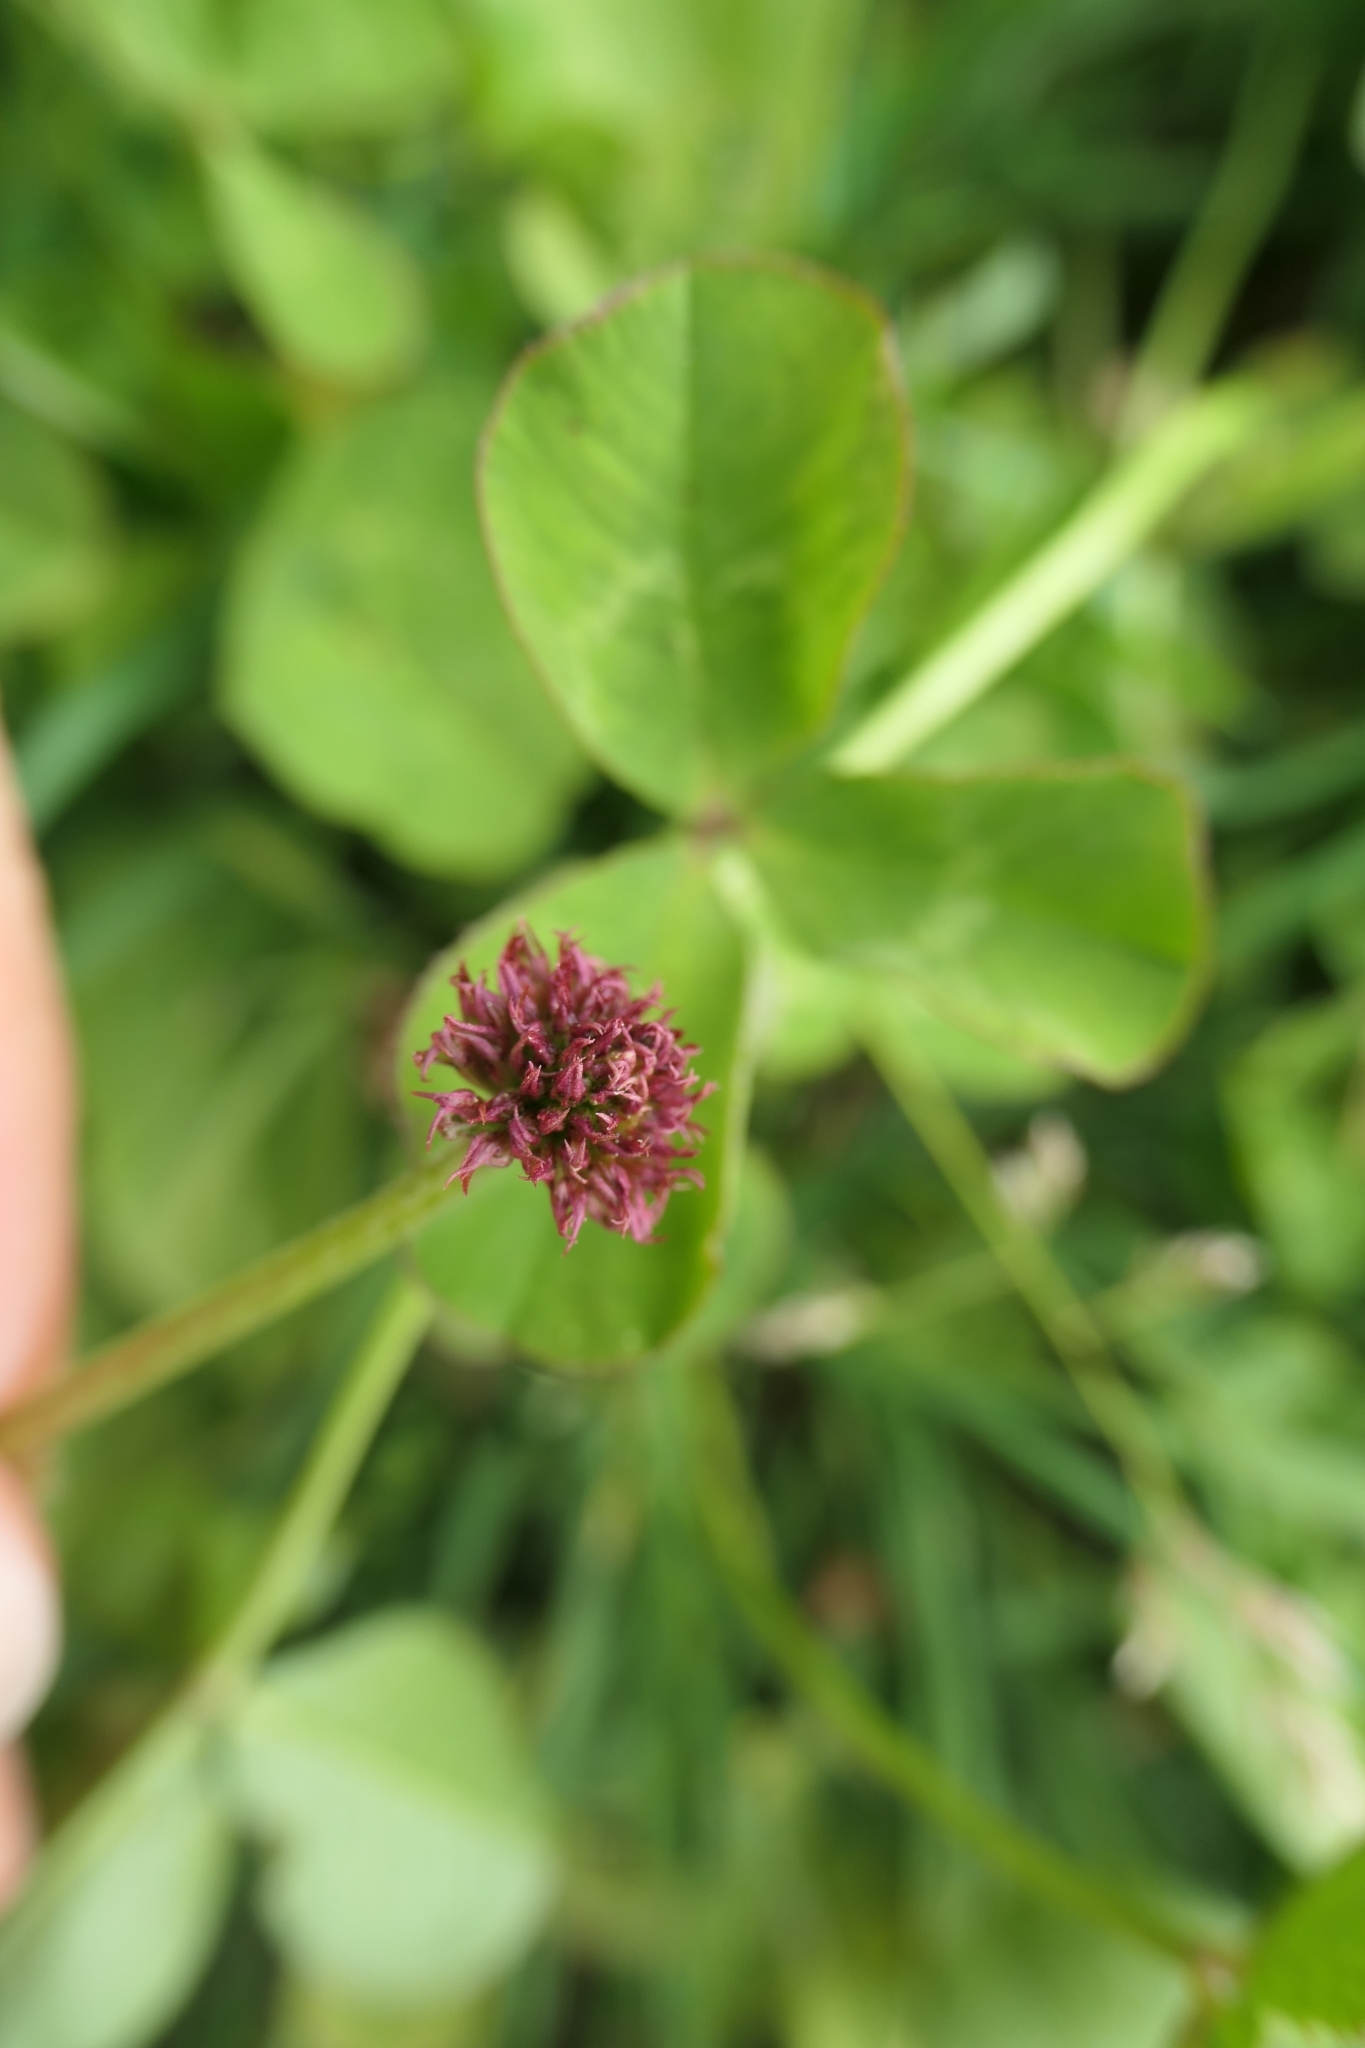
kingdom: Plantae
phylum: Tracheophyta
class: Magnoliopsida
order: Fabales
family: Fabaceae
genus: Trifolium
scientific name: Trifolium repens
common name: White clover
